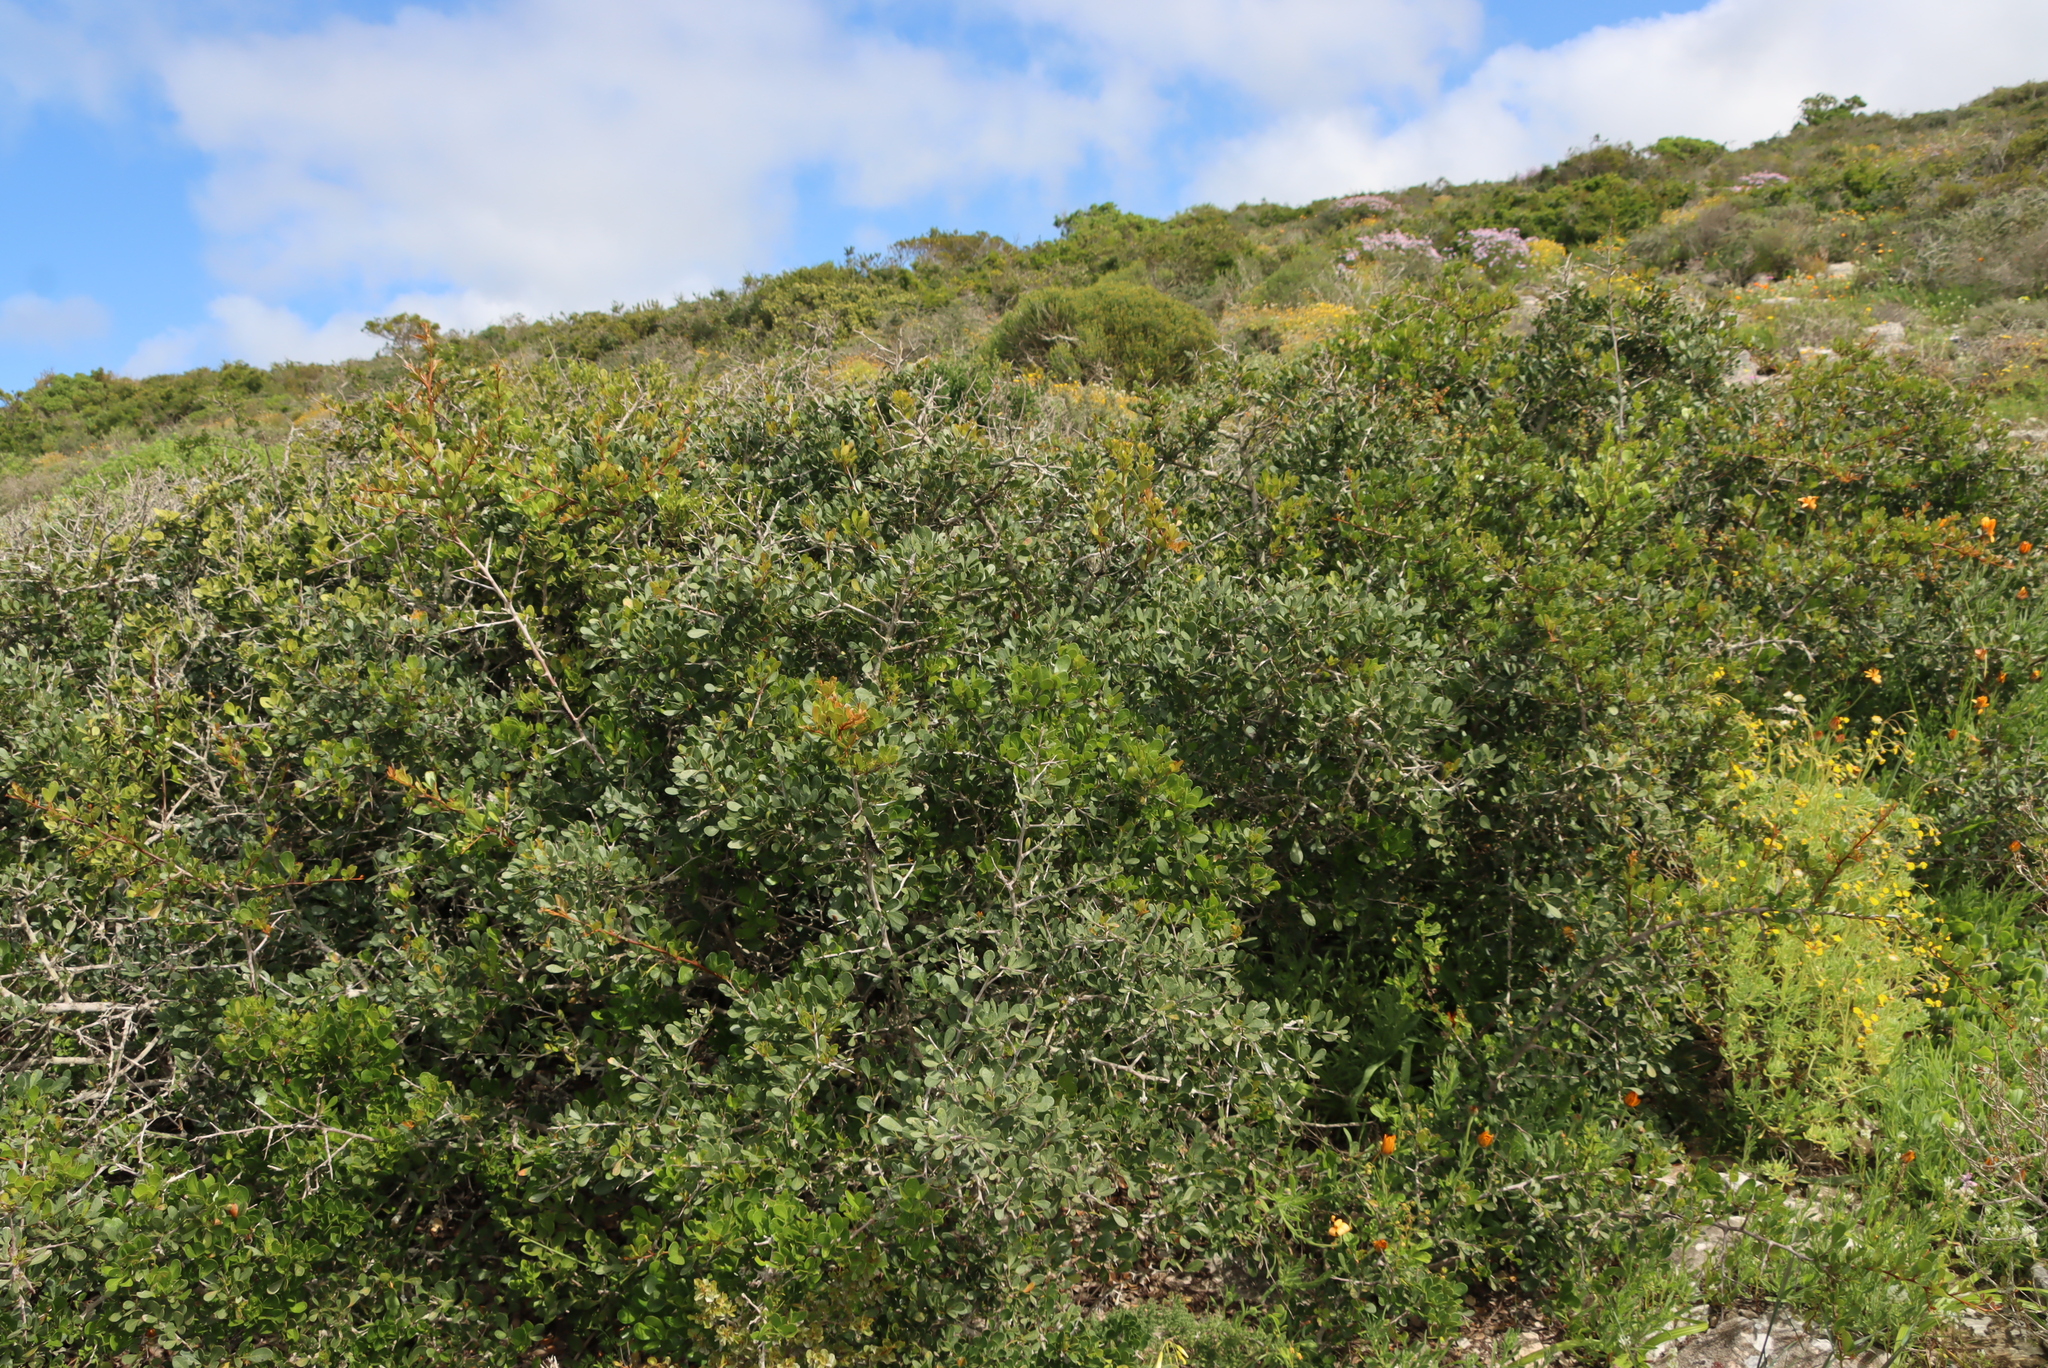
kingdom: Plantae
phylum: Tracheophyta
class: Magnoliopsida
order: Sapindales
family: Anacardiaceae
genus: Searsia
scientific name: Searsia pterota
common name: Winged currant
